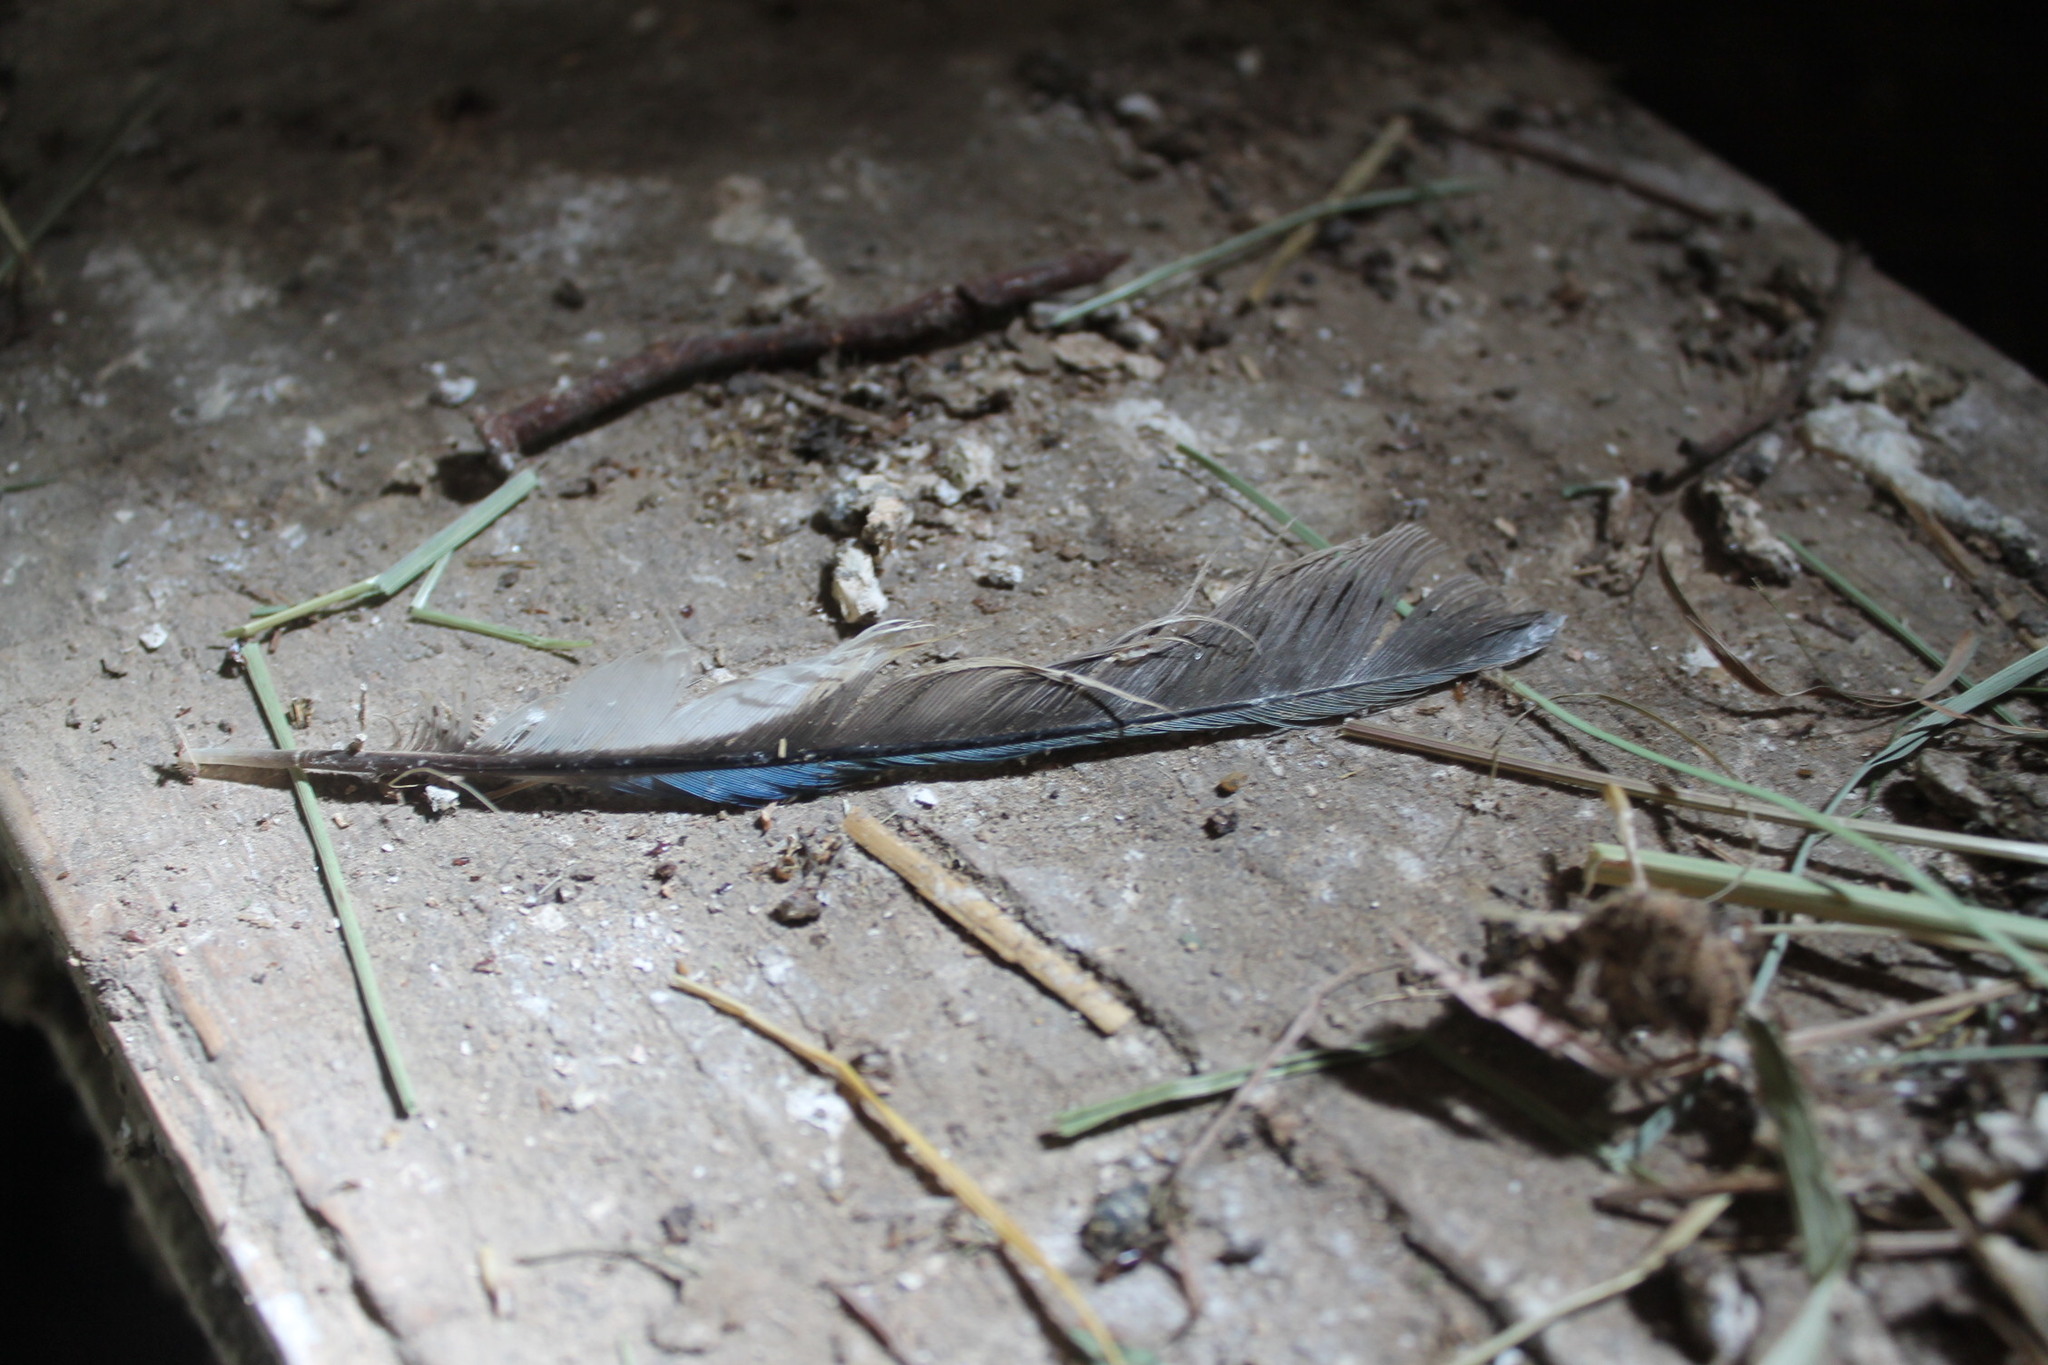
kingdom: Animalia
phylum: Chordata
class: Aves
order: Passeriformes
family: Corvidae
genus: Cyanocitta
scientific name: Cyanocitta cristata
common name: Blue jay
